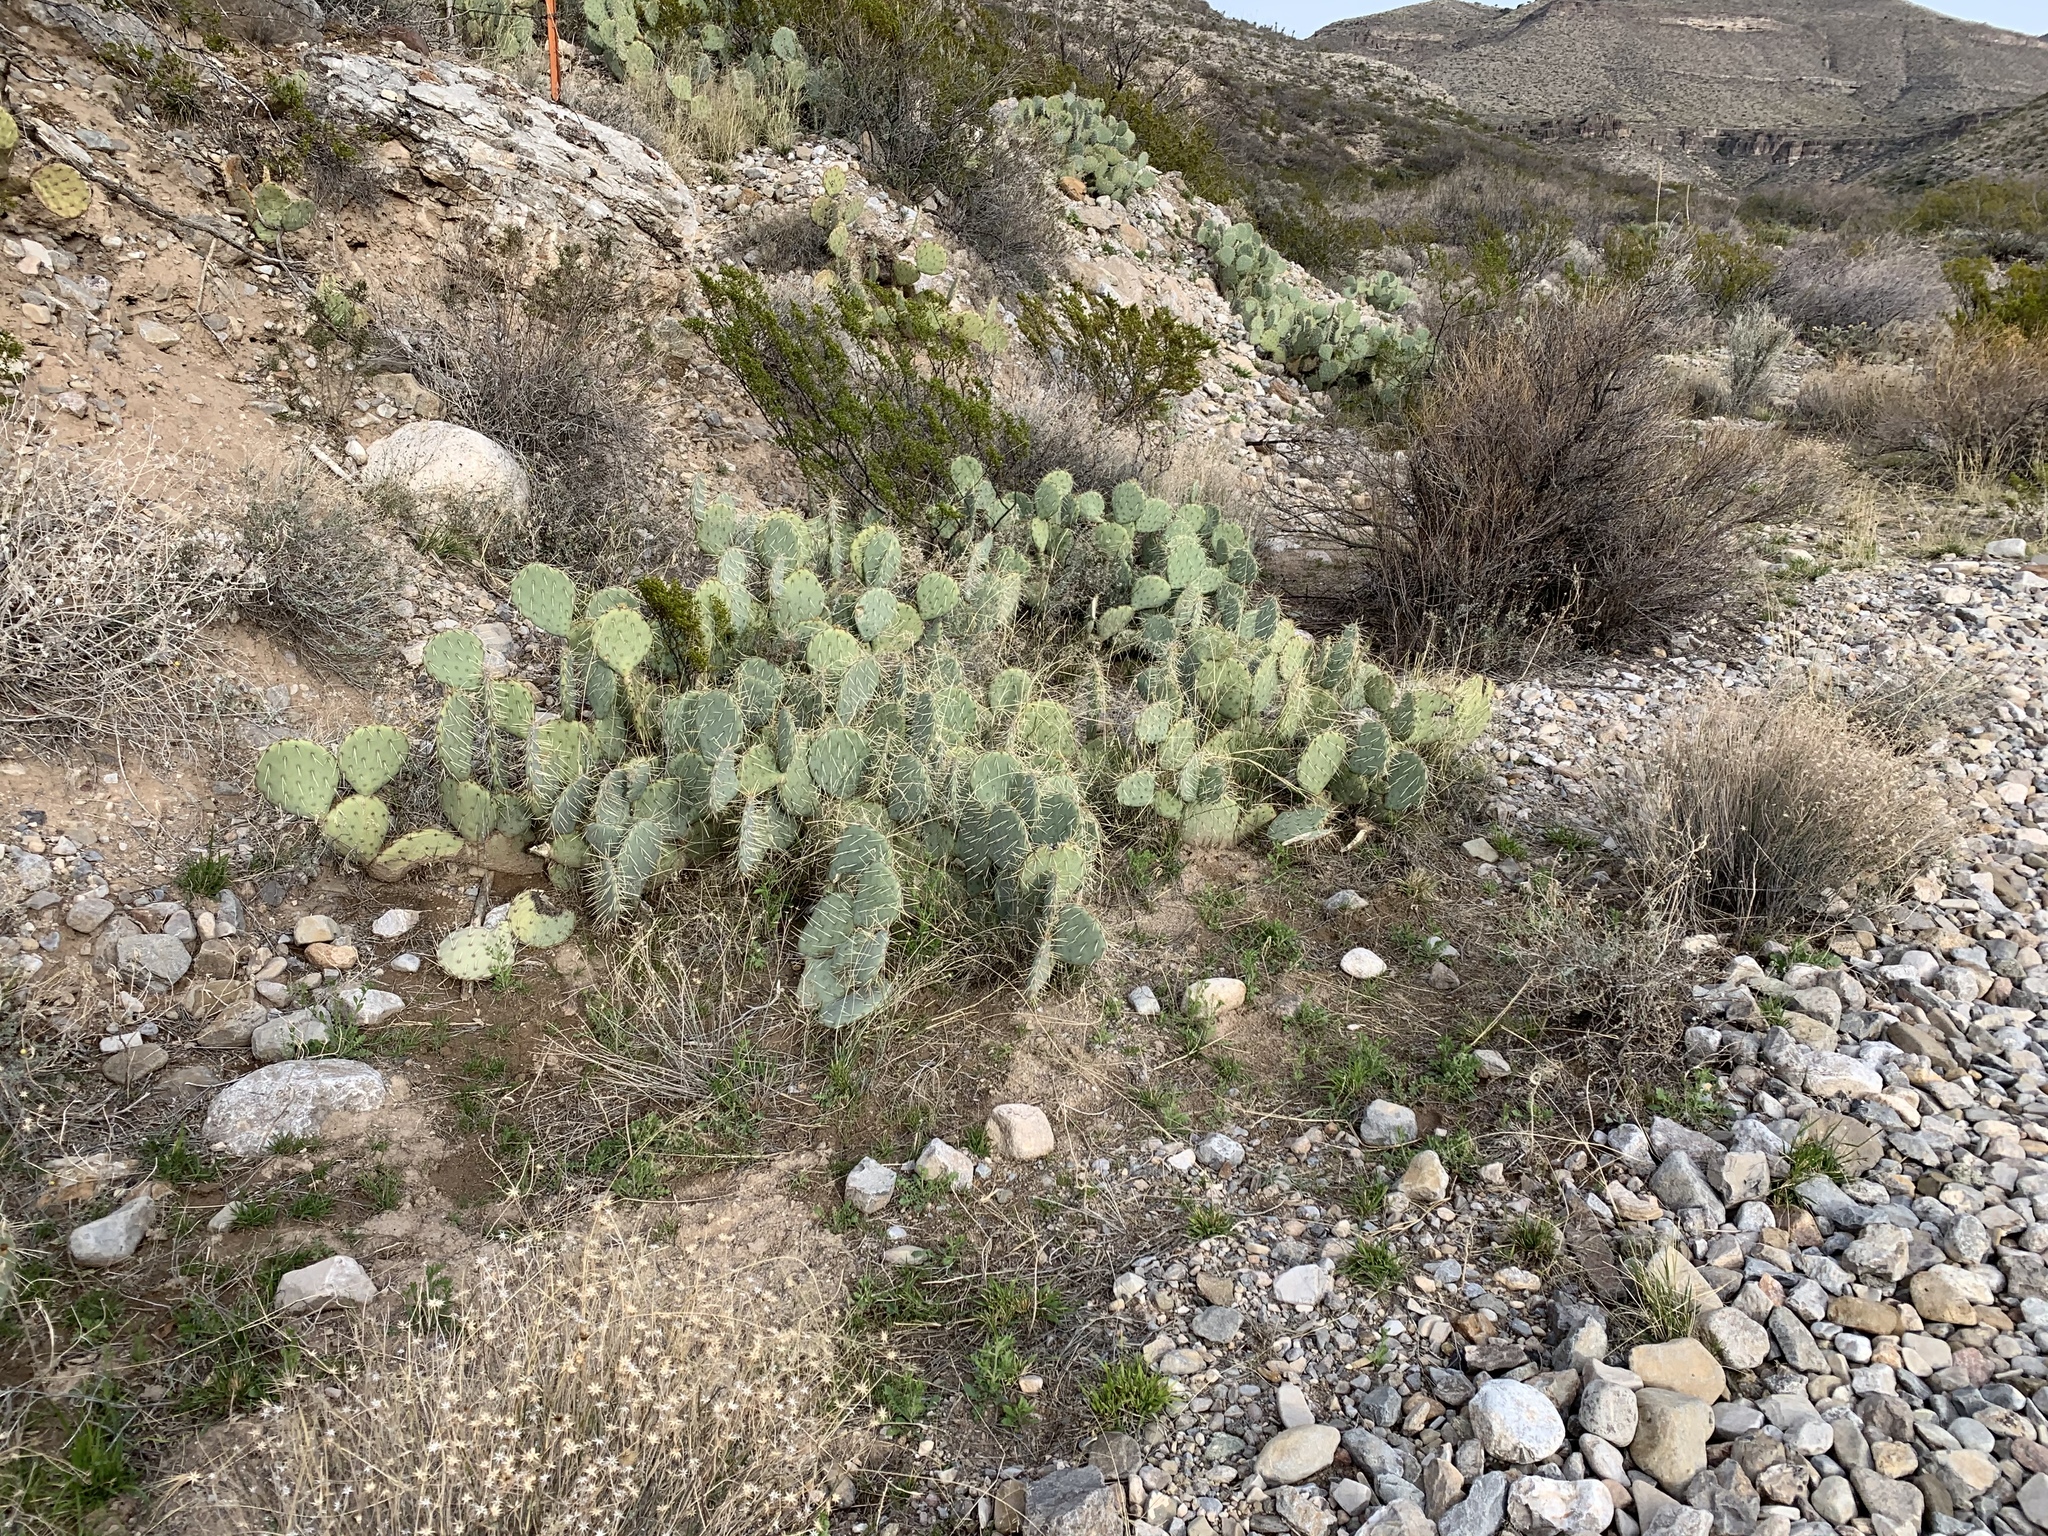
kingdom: Plantae
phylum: Tracheophyta
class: Magnoliopsida
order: Caryophyllales
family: Cactaceae
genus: Opuntia
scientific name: Opuntia engelmannii
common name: Cactus-apple
